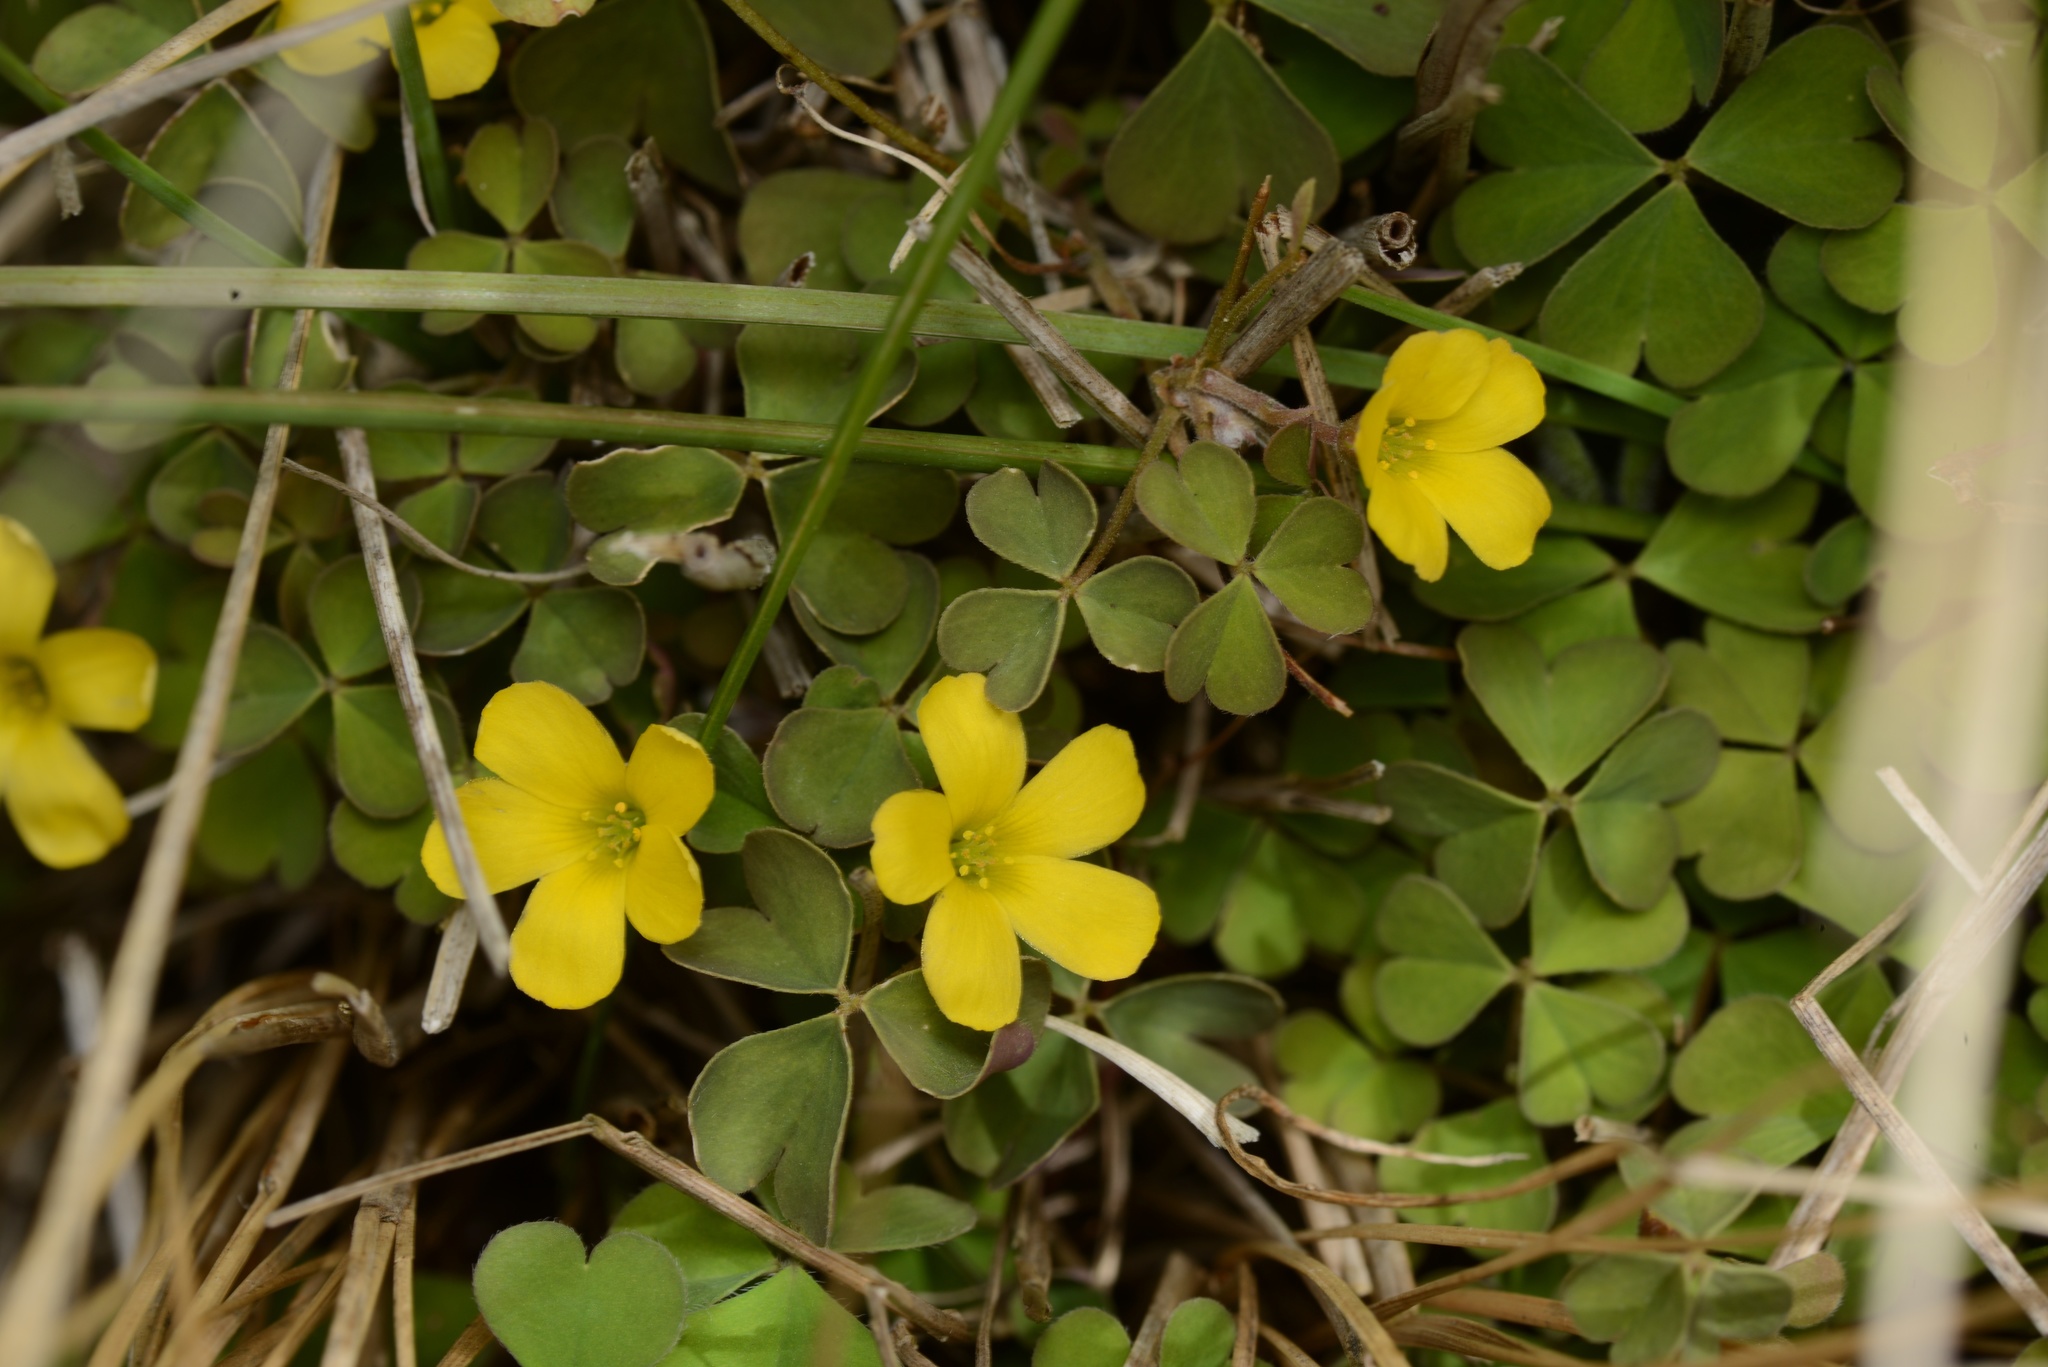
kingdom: Plantae
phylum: Tracheophyta
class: Magnoliopsida
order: Oxalidales
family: Oxalidaceae
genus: Oxalis
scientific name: Oxalis exilis
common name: Least yellow-sorrel
